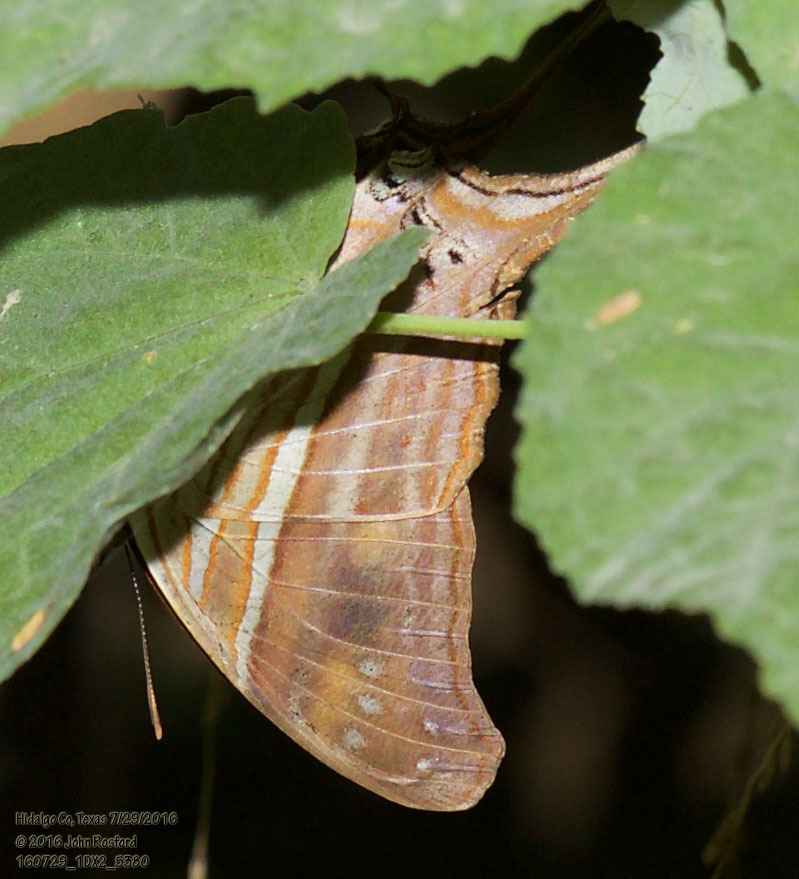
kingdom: Animalia
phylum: Arthropoda
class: Insecta
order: Lepidoptera
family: Nymphalidae
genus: Marpesia
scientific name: Marpesia chiron
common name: Many-banded daggerwing
